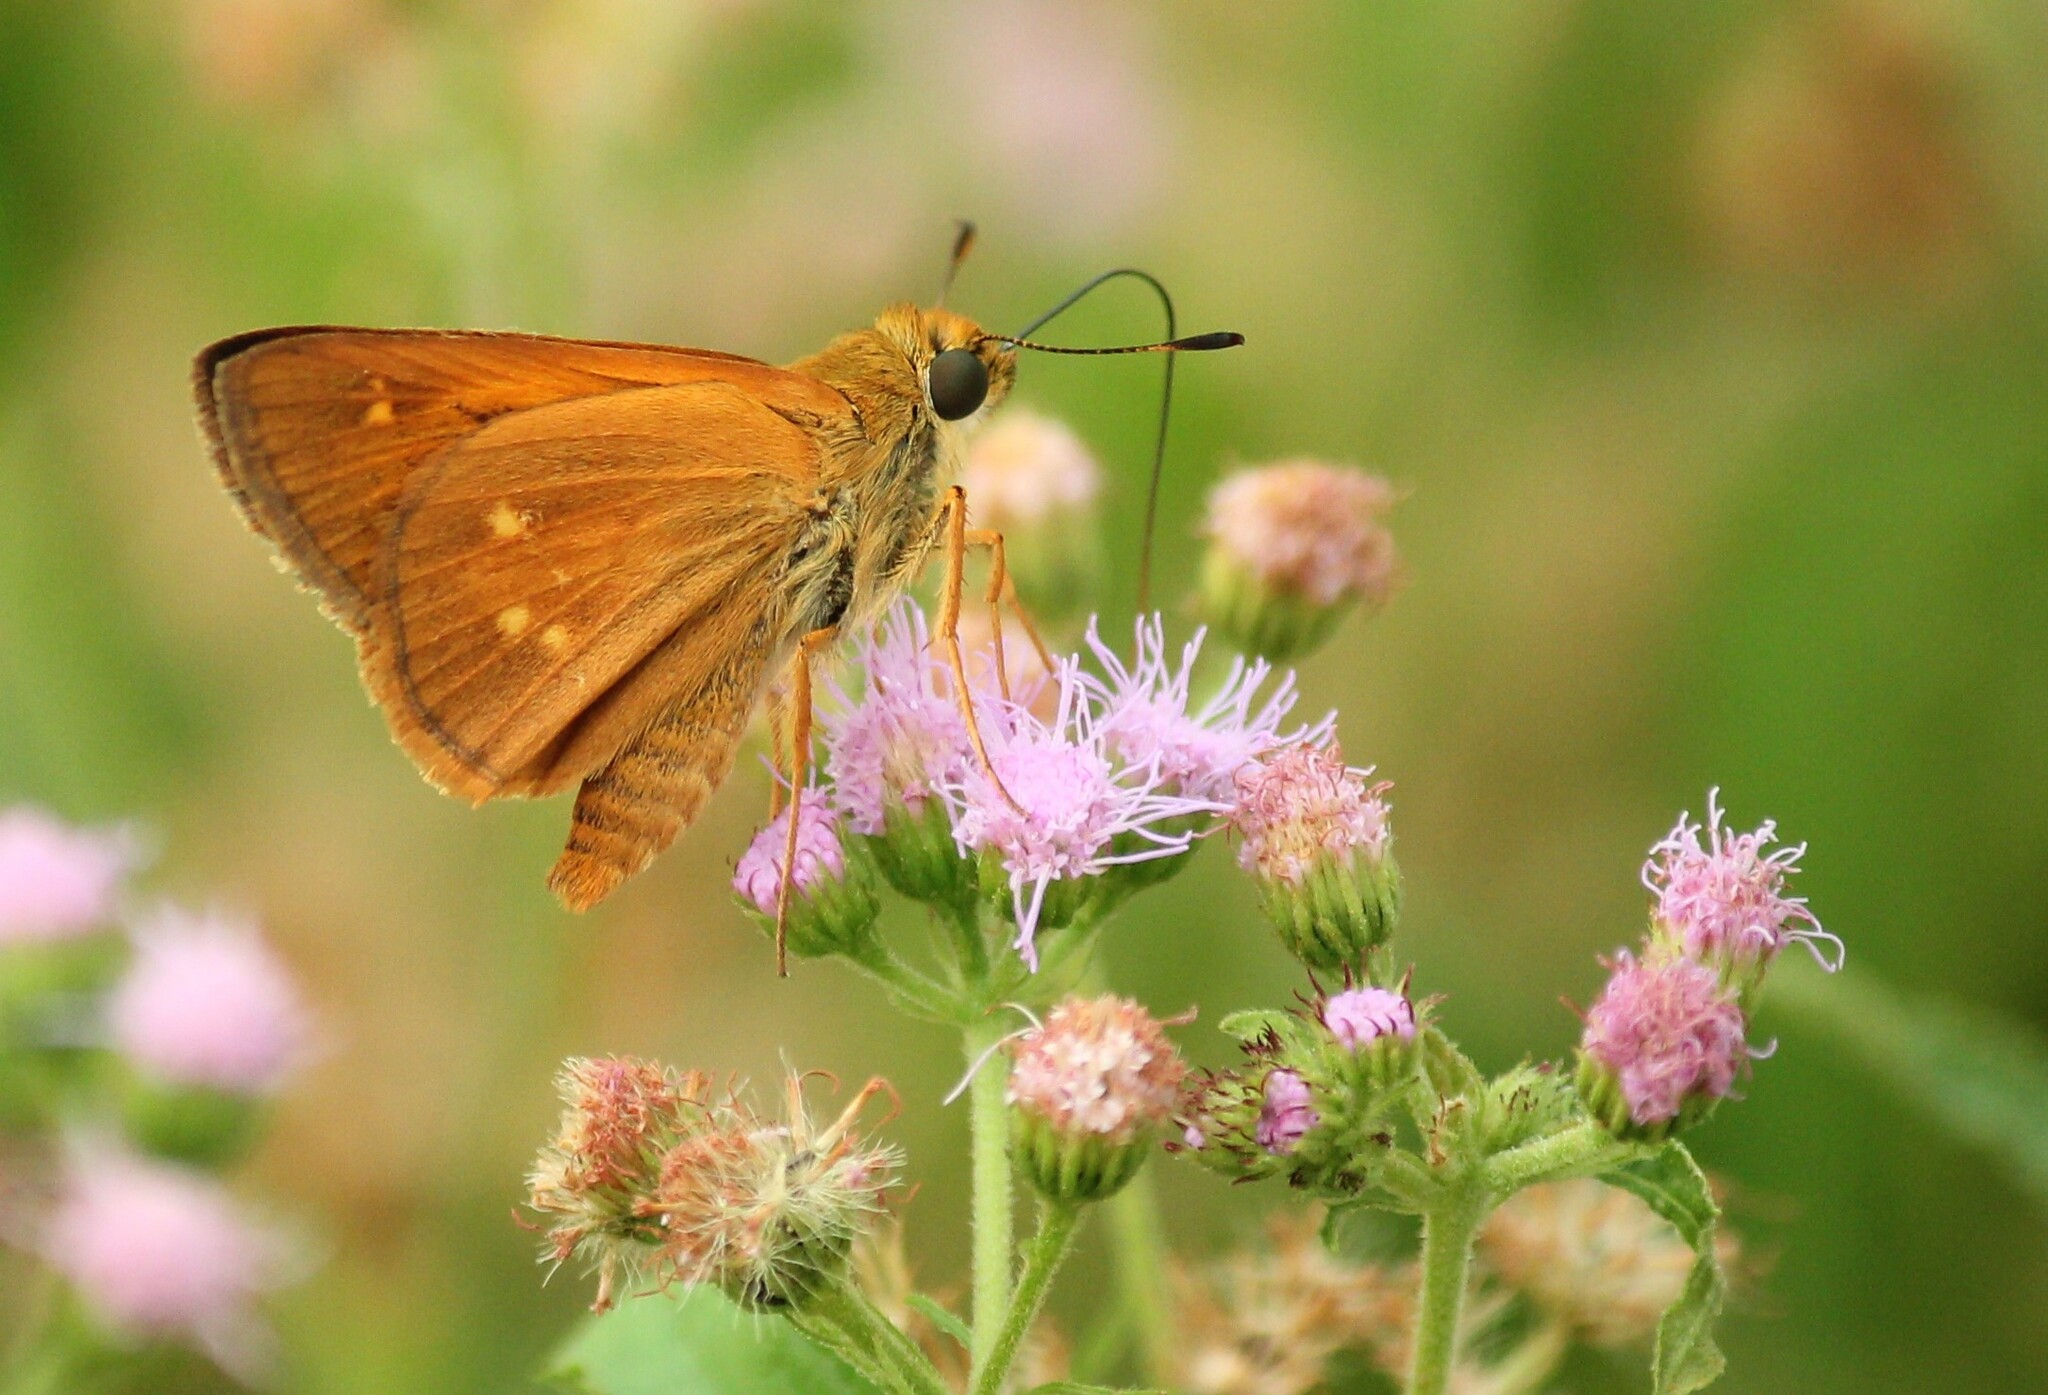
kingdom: Animalia
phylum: Arthropoda
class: Insecta
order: Lepidoptera
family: Hesperiidae
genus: Poanes
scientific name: Poanes yehl
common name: Yehl skipper
